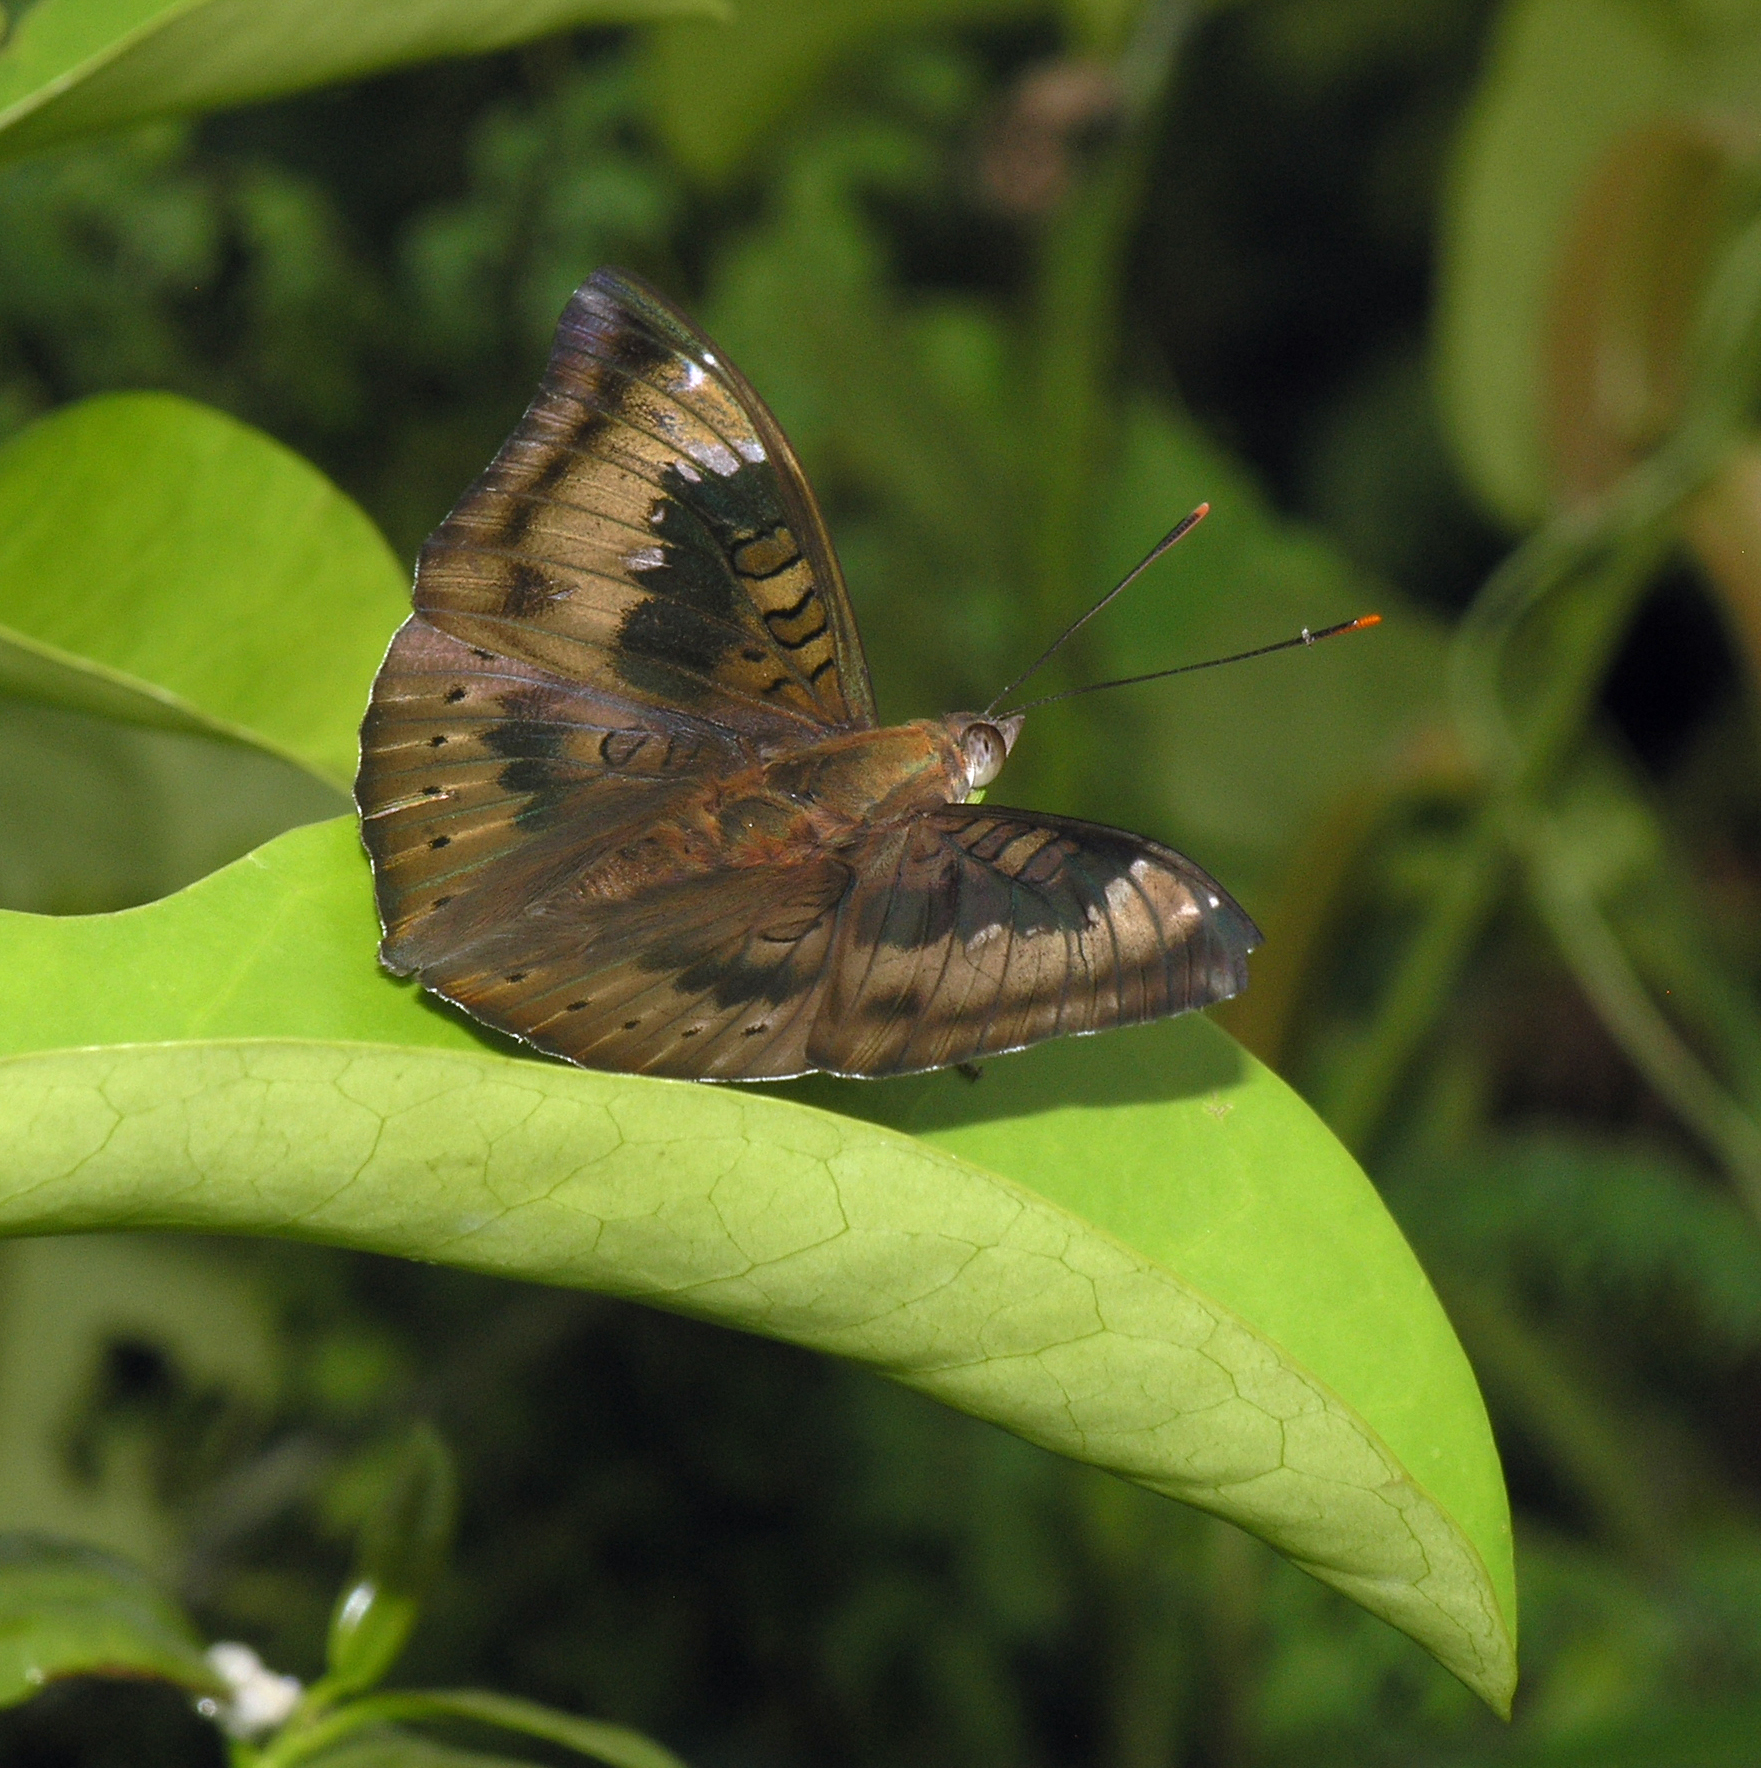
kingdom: Animalia
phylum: Arthropoda
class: Insecta
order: Lepidoptera
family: Nymphalidae
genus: Euthalia
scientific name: Euthalia aconthea
